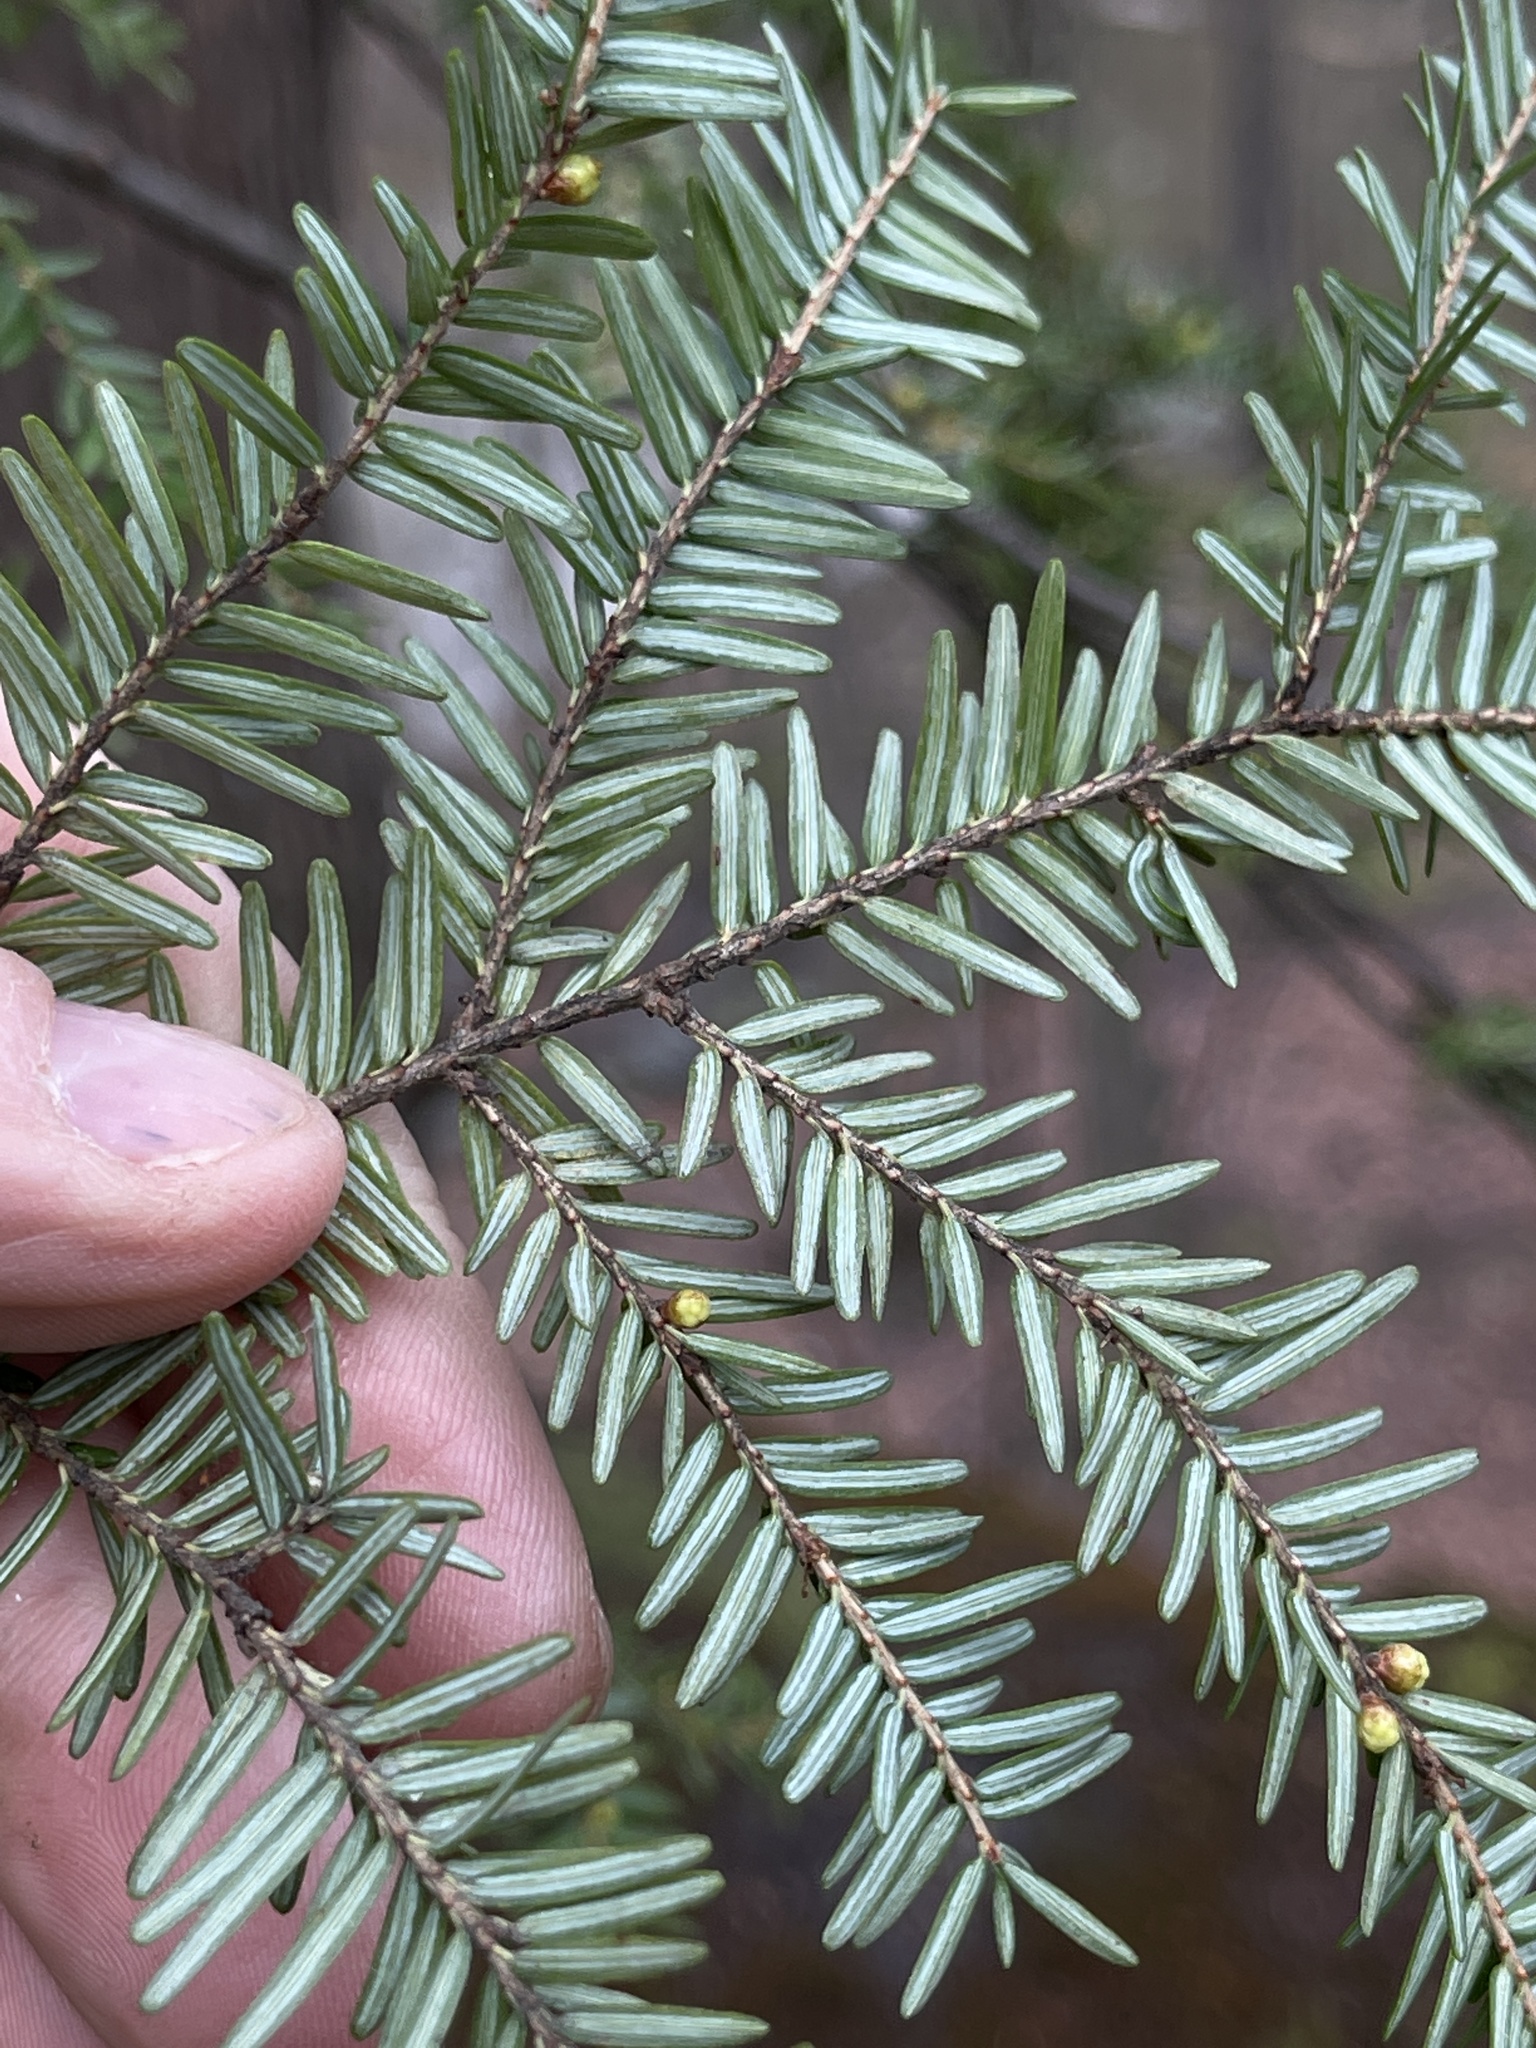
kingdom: Plantae
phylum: Tracheophyta
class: Pinopsida
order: Pinales
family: Pinaceae
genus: Tsuga
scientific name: Tsuga canadensis
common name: Eastern hemlock
